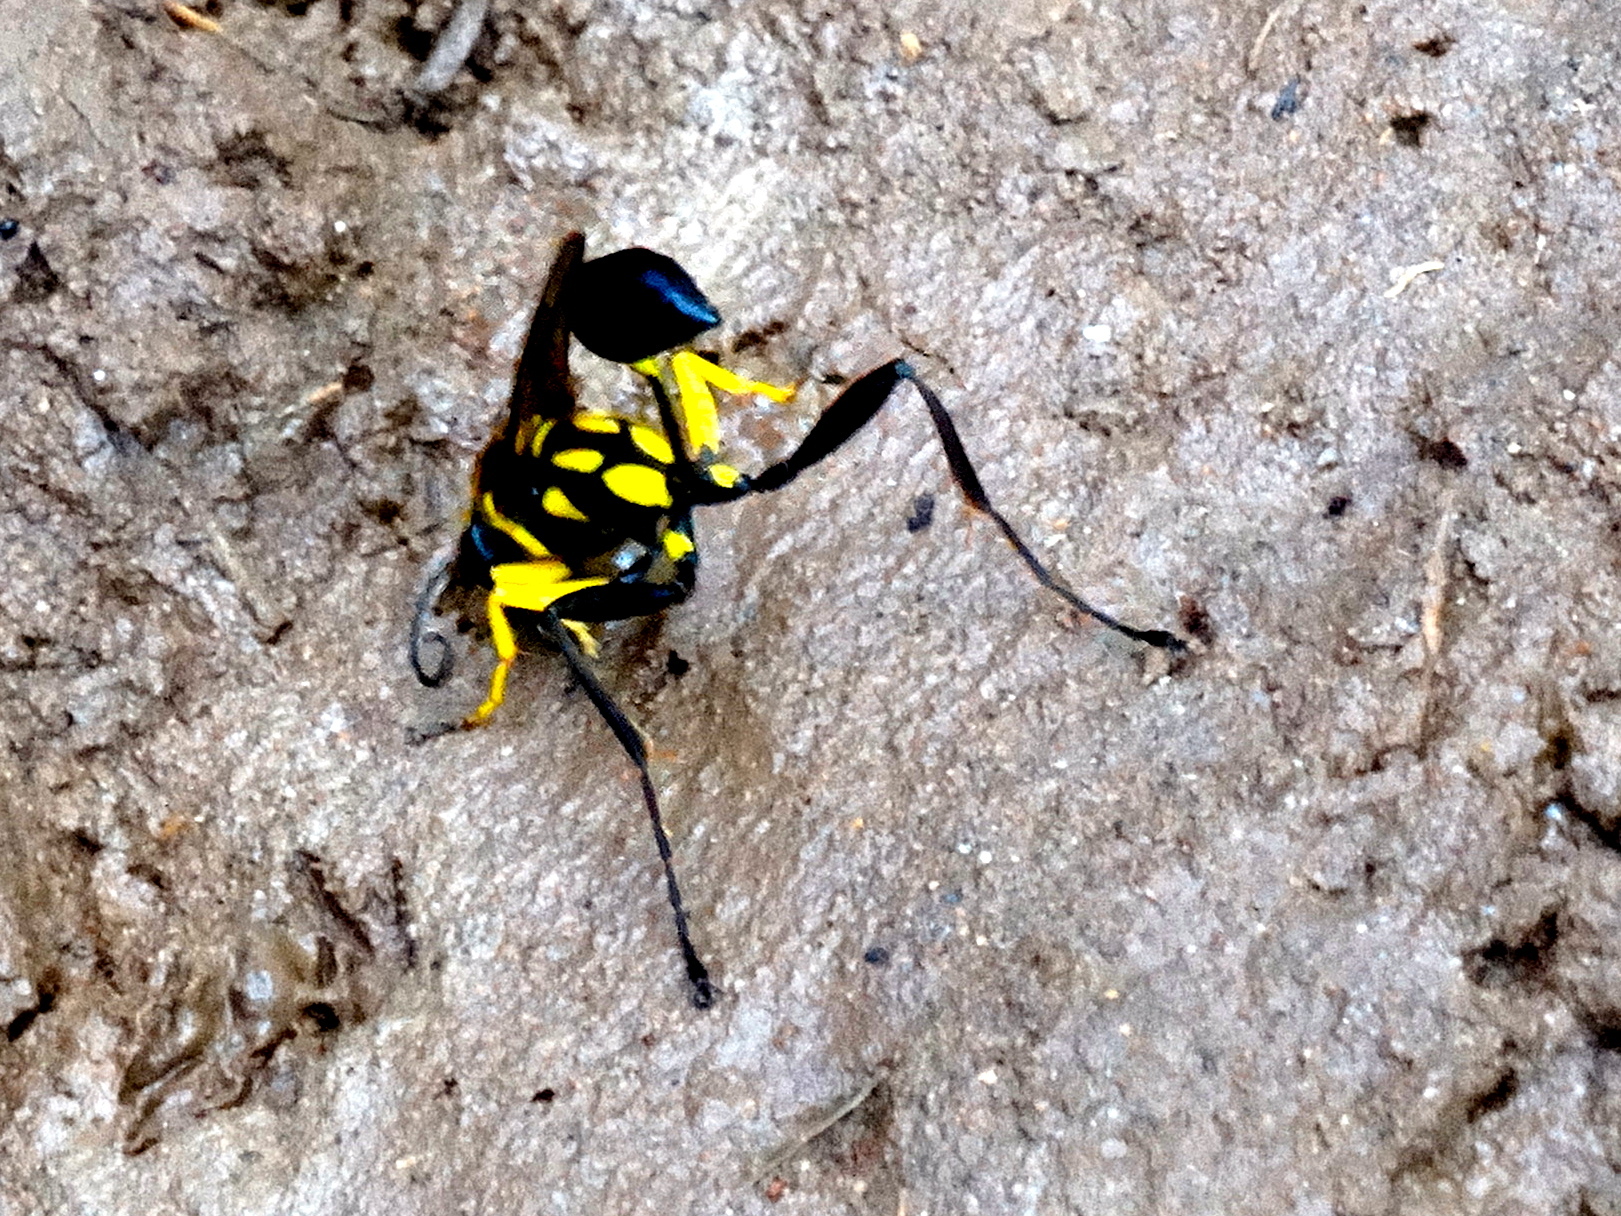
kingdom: Animalia
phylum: Arthropoda
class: Insecta
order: Hymenoptera
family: Sphecidae
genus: Sceliphron
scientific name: Sceliphron fistularium
